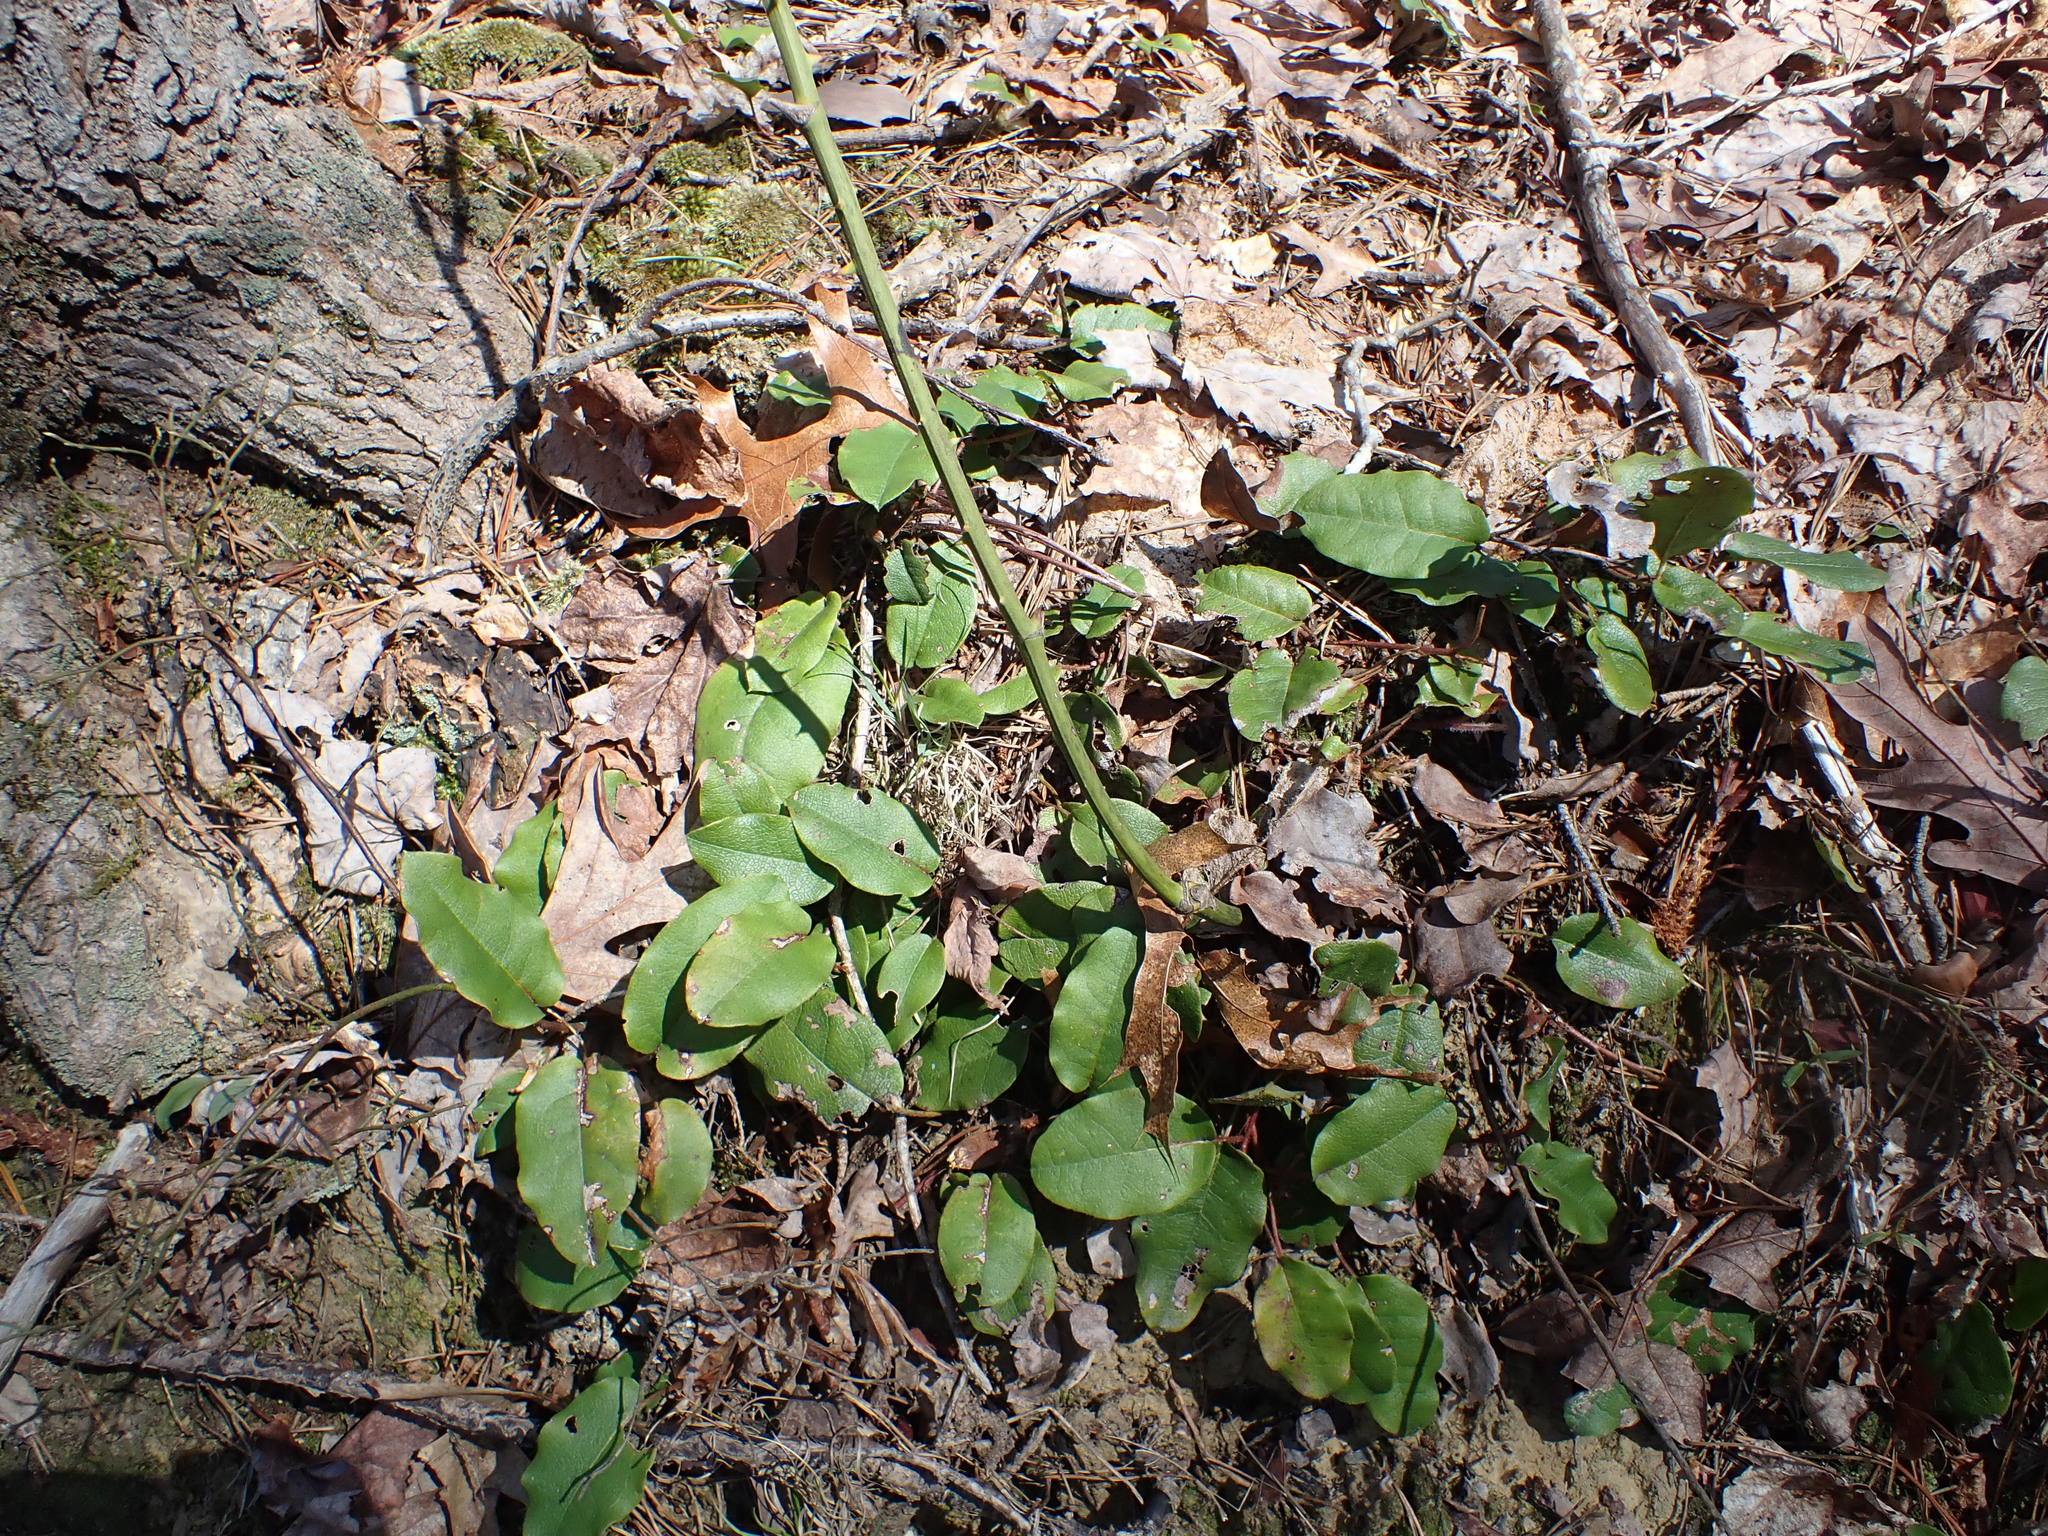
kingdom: Plantae
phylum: Tracheophyta
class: Magnoliopsida
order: Ericales
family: Ericaceae
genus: Epigaea
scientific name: Epigaea repens
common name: Gravelroot
